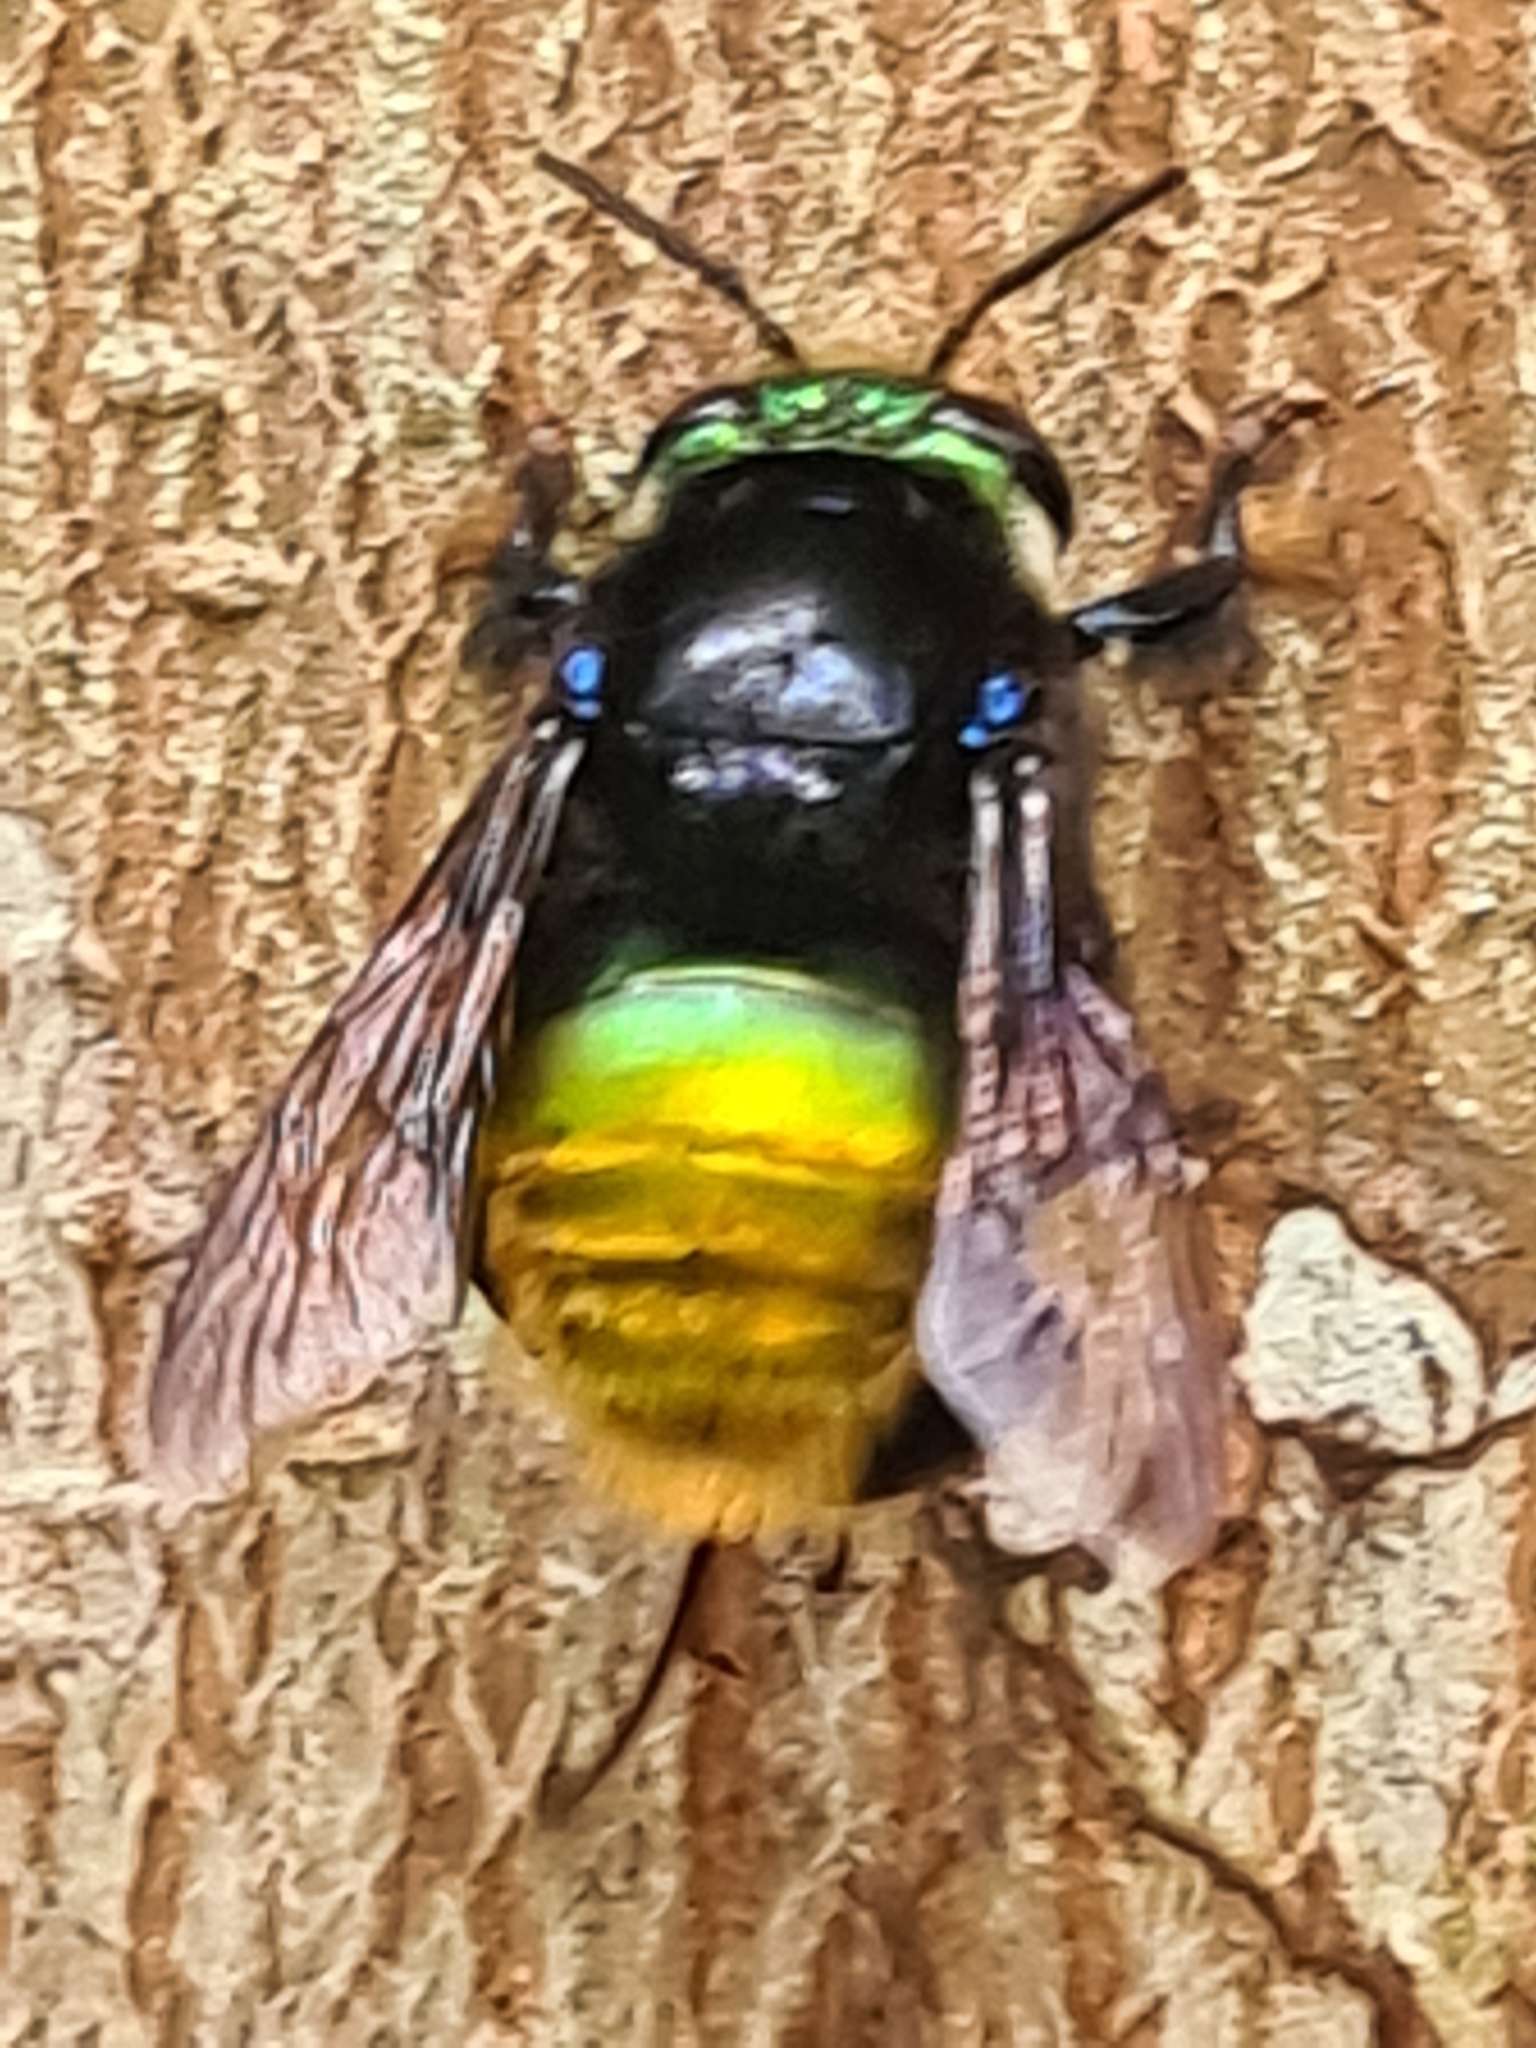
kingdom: Animalia
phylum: Arthropoda
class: Insecta
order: Hymenoptera
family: Apidae
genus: Euglossa
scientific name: Euglossa intersecta
